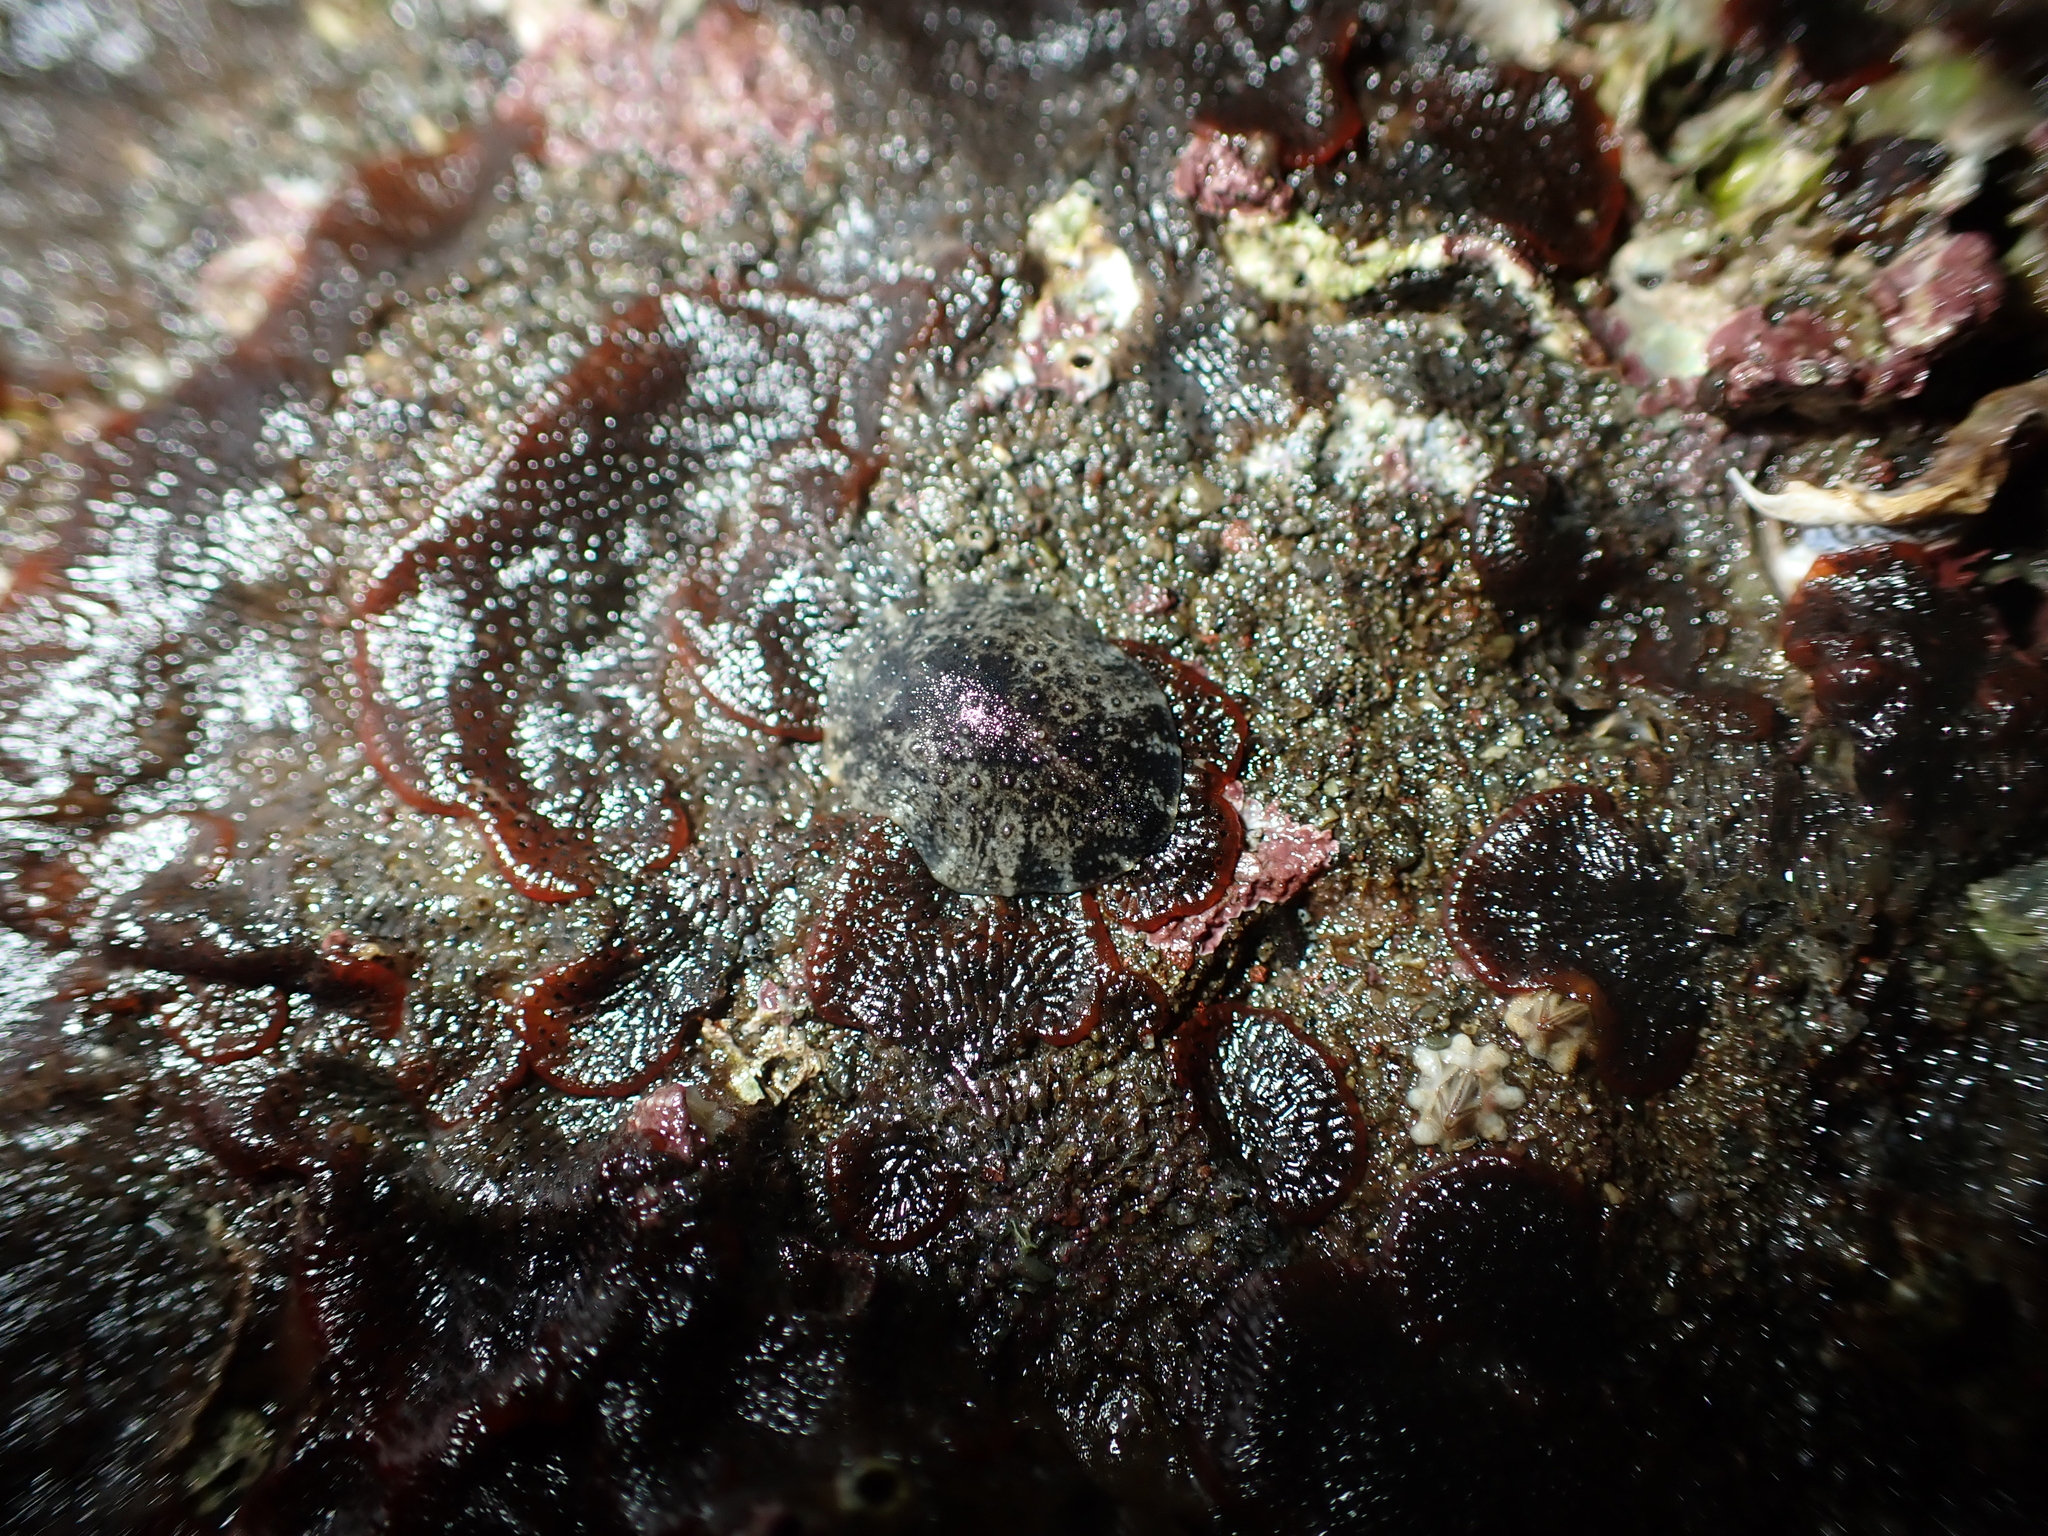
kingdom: Animalia
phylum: Mollusca
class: Gastropoda
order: Systellommatophora
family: Onchidiidae
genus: Onchidella
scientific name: Onchidella nigricans
